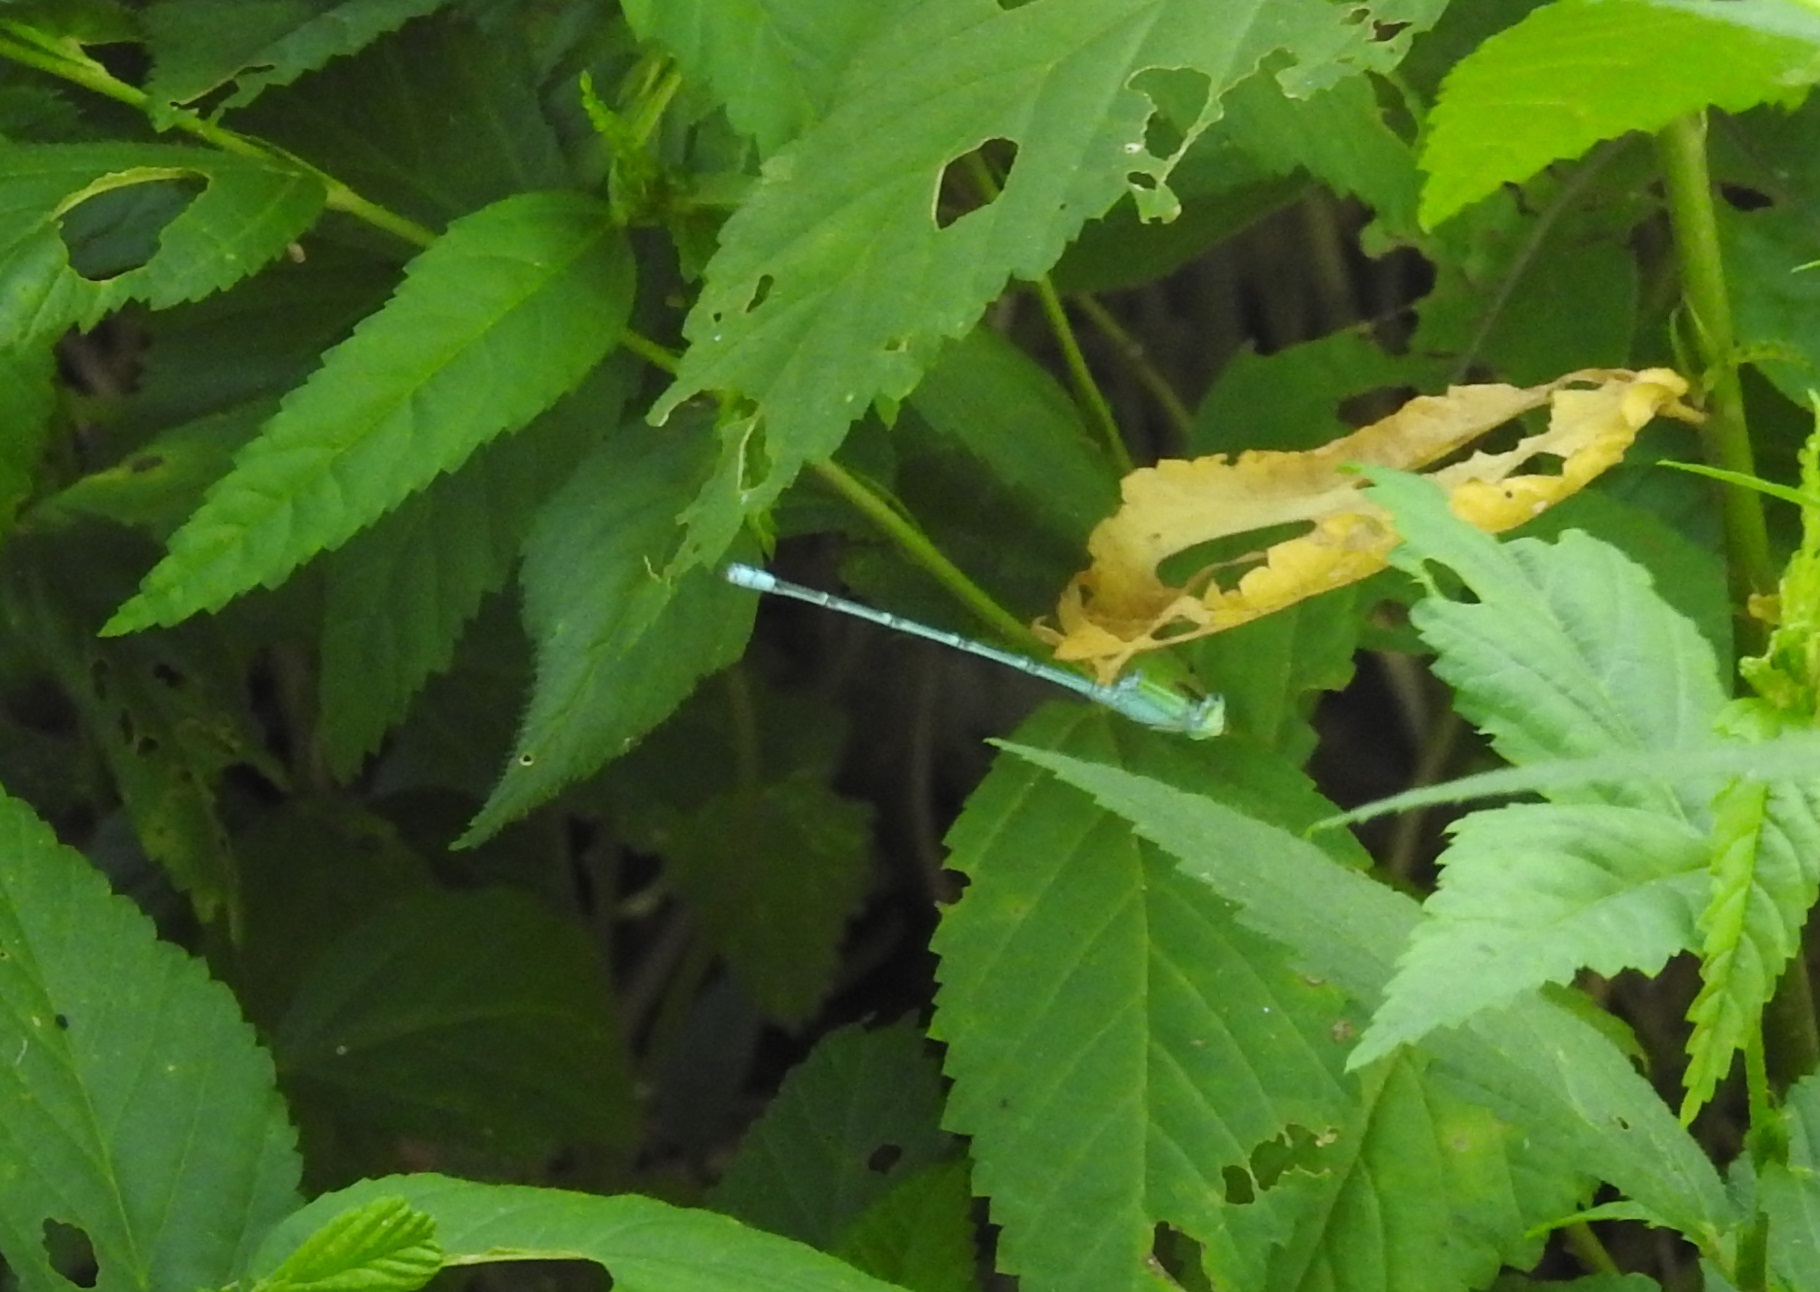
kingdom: Animalia
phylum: Arthropoda
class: Insecta
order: Odonata
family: Coenagrionidae
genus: Pseudagrion
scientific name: Pseudagrion decorum
